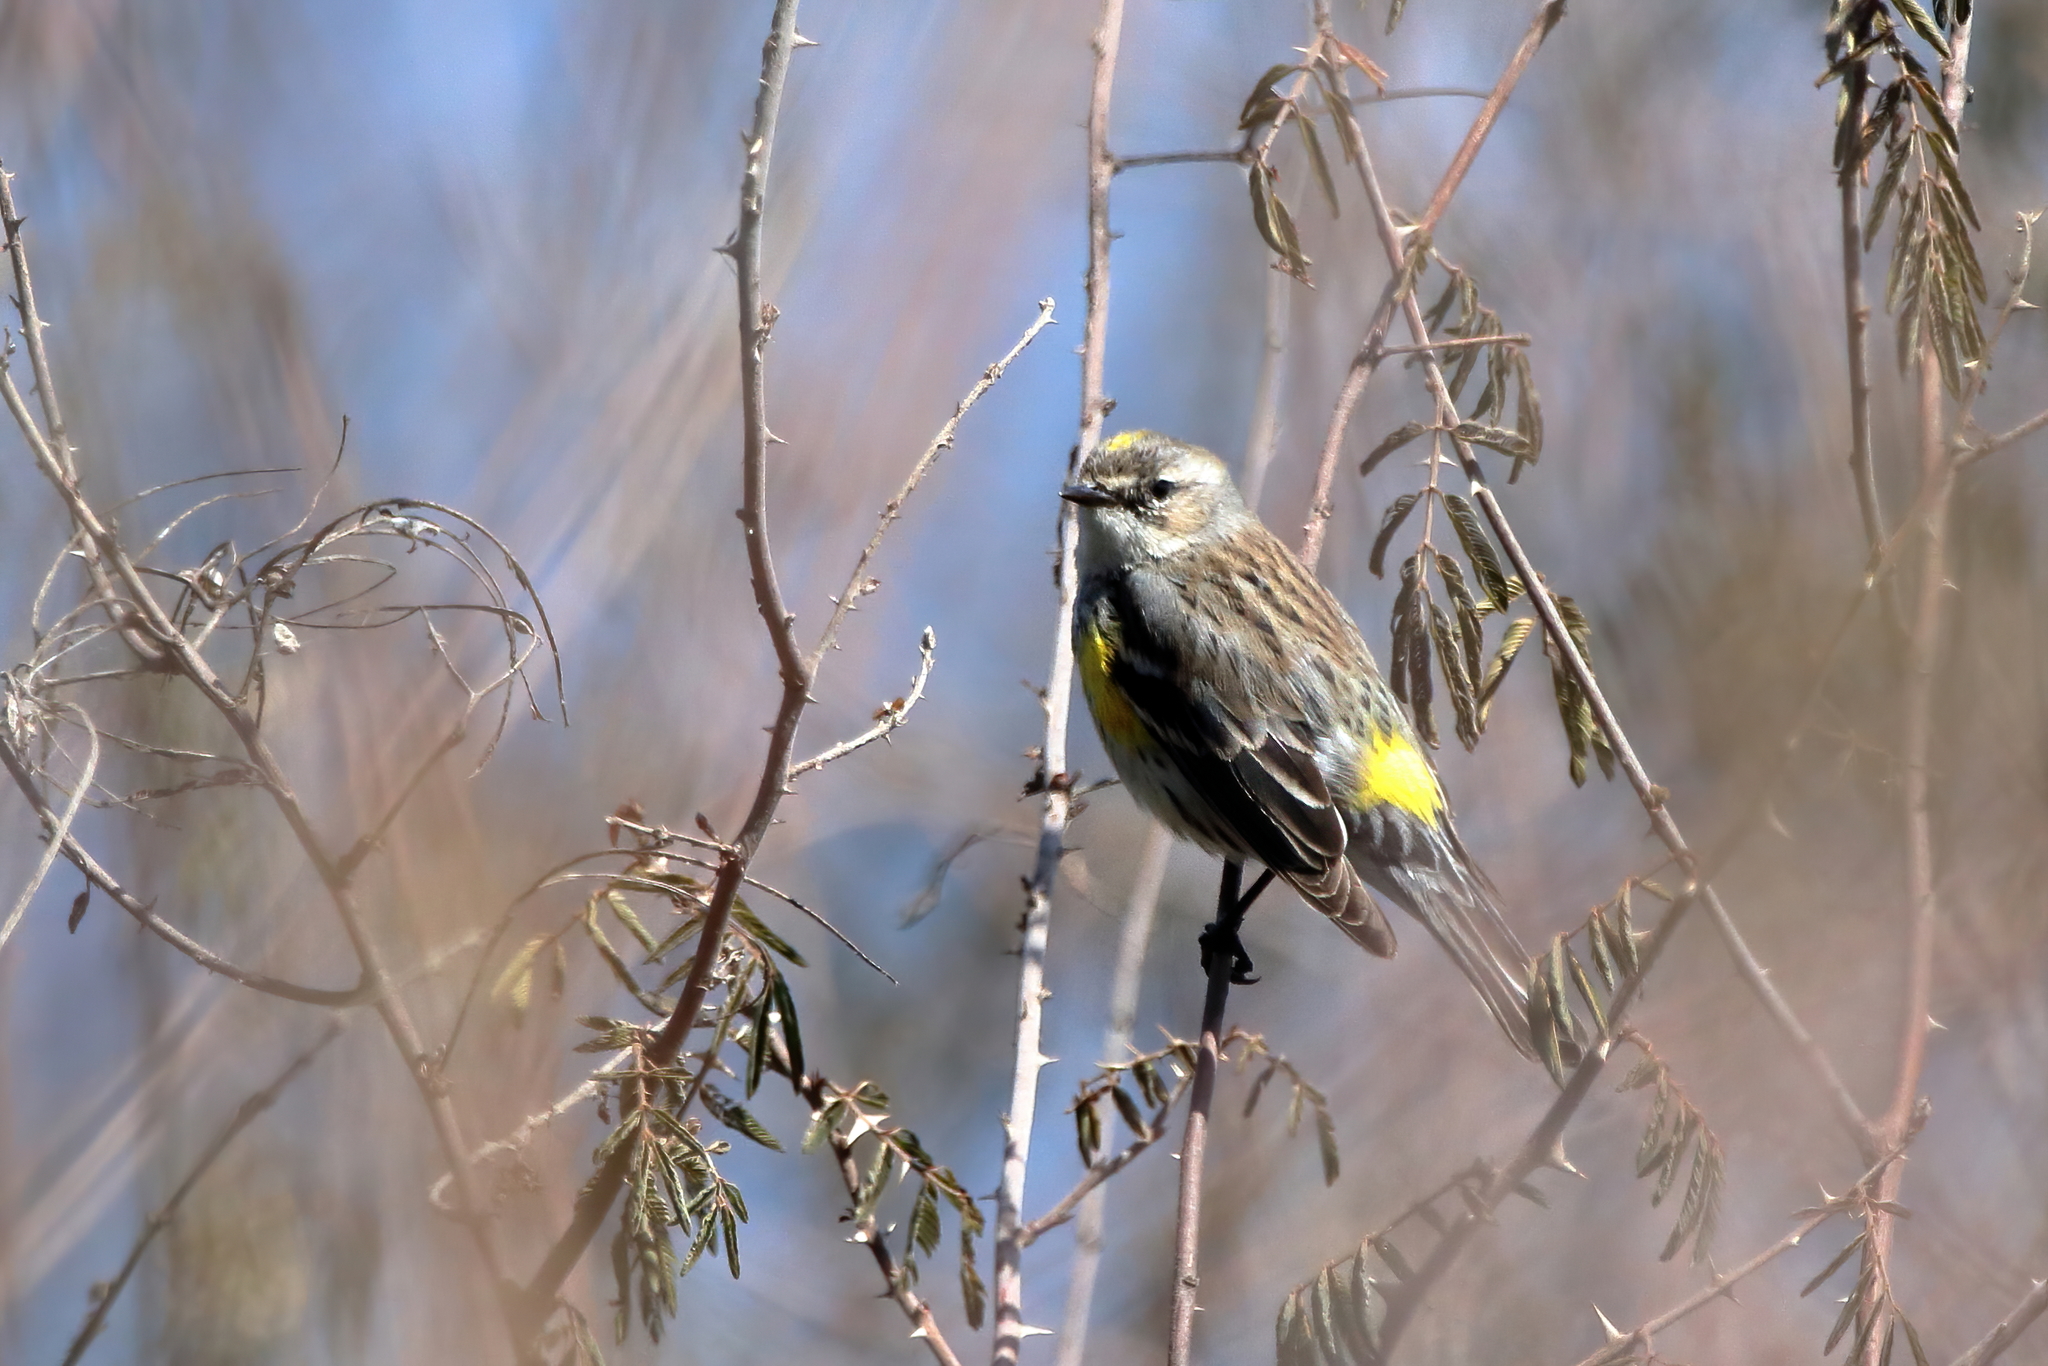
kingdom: Animalia
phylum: Chordata
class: Aves
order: Passeriformes
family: Parulidae
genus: Setophaga
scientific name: Setophaga coronata
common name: Myrtle warbler
